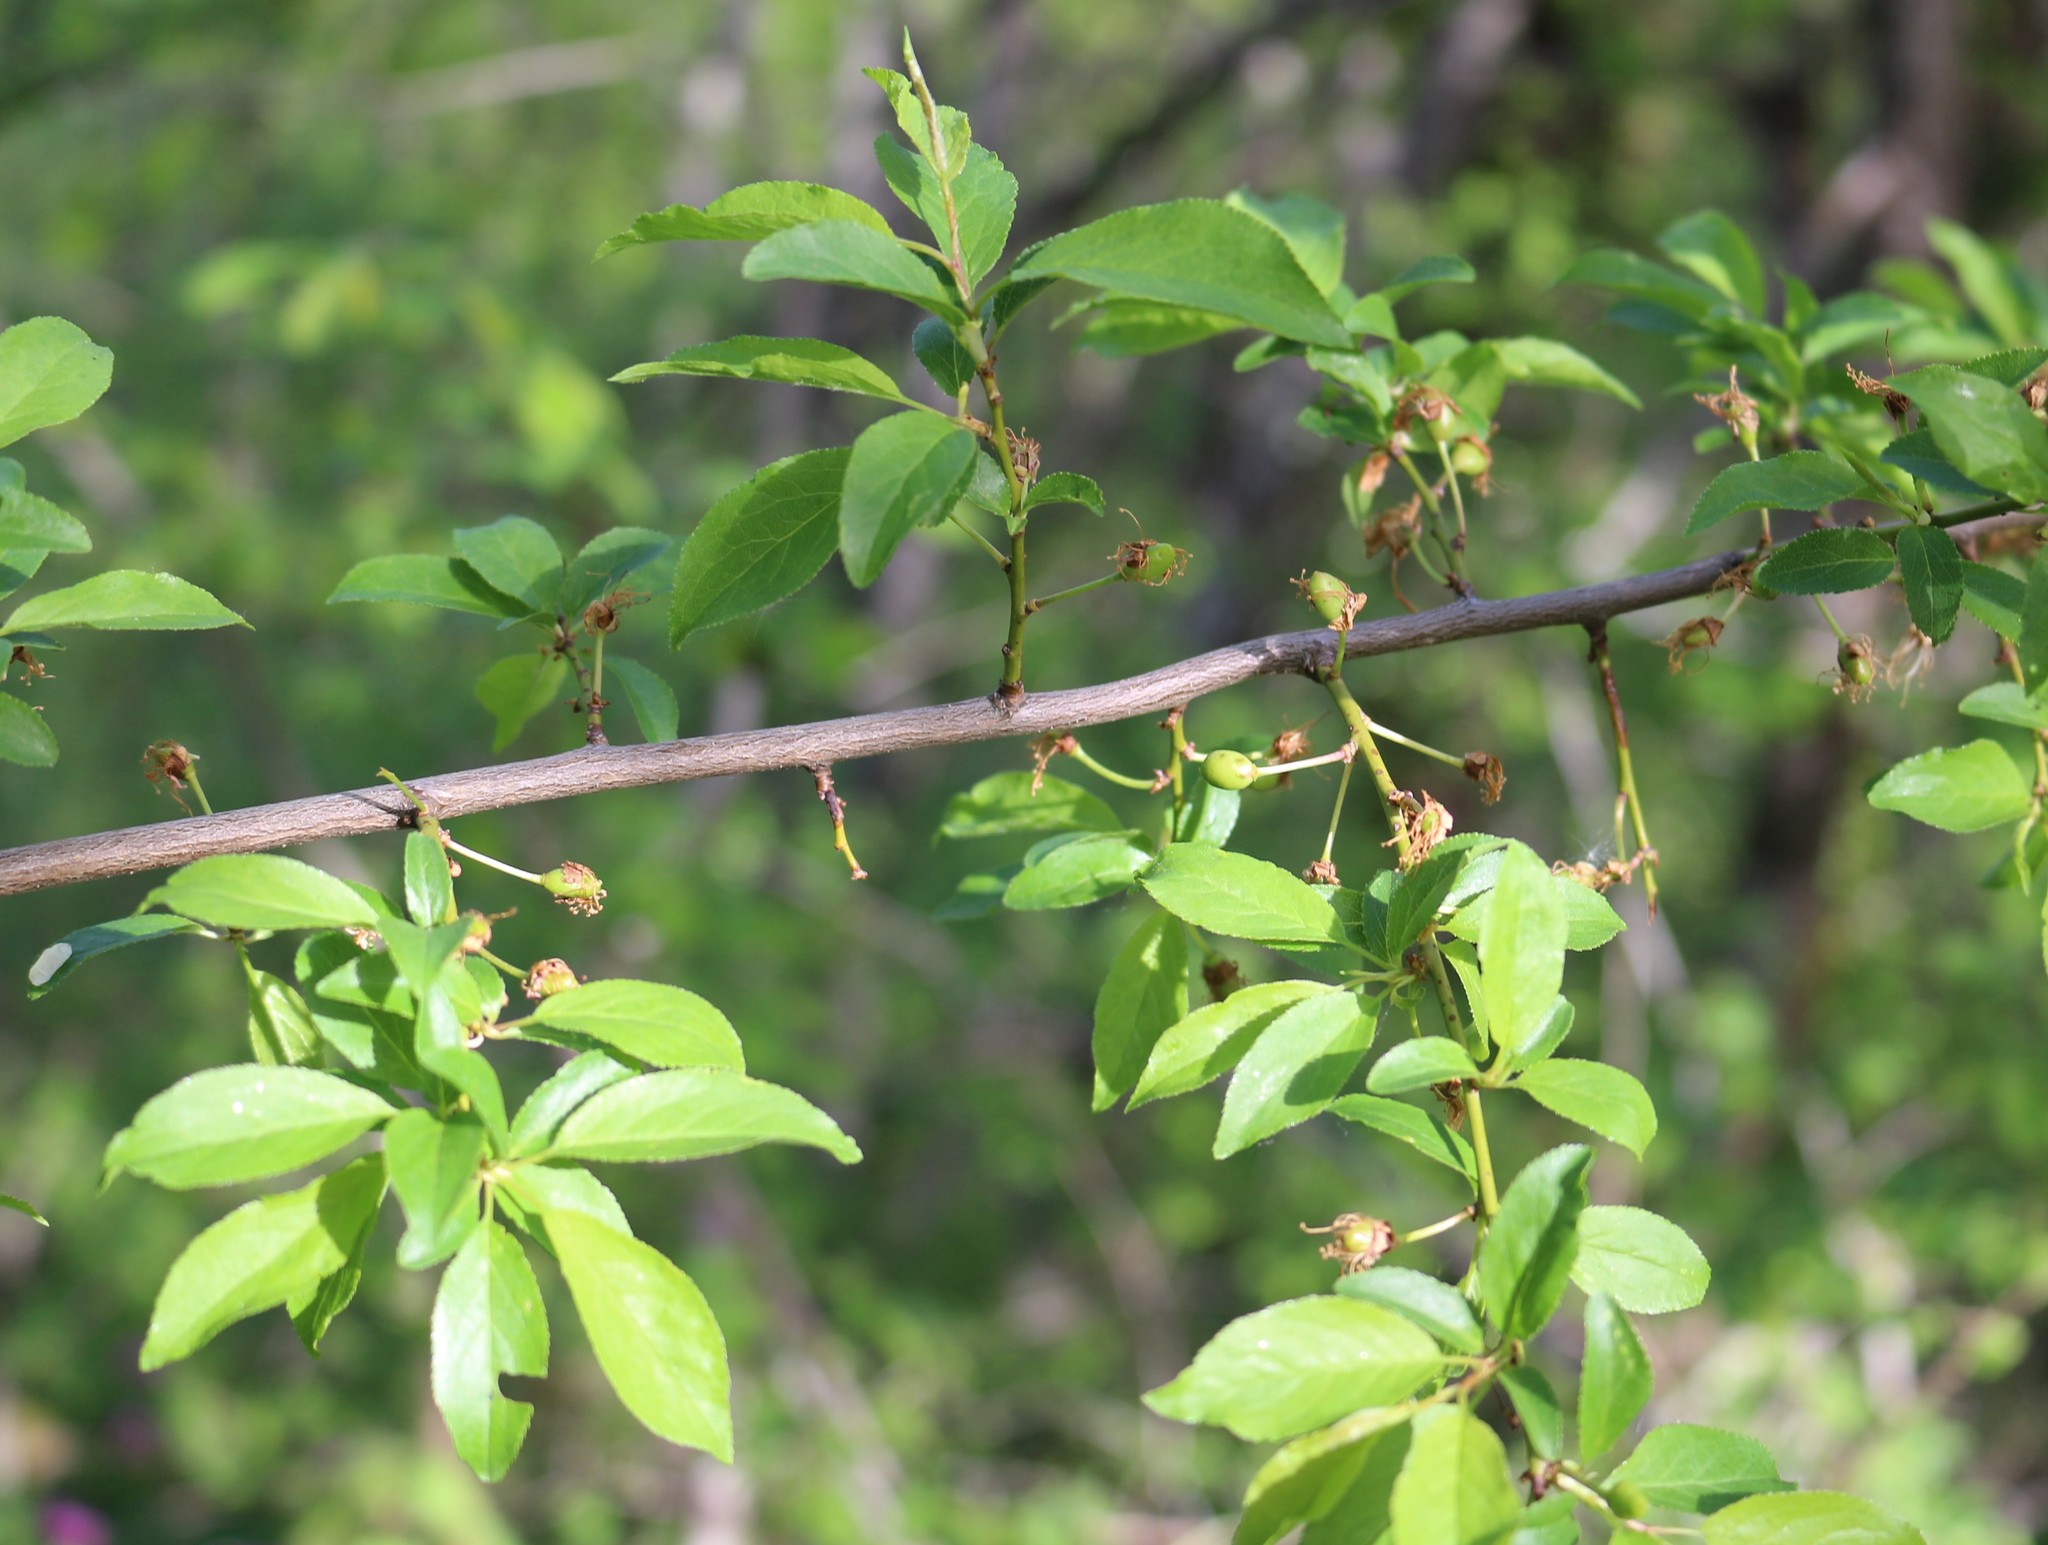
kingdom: Plantae
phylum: Tracheophyta
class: Magnoliopsida
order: Rosales
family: Rosaceae
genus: Prunus
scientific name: Prunus cerasifera
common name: Cherry plum
